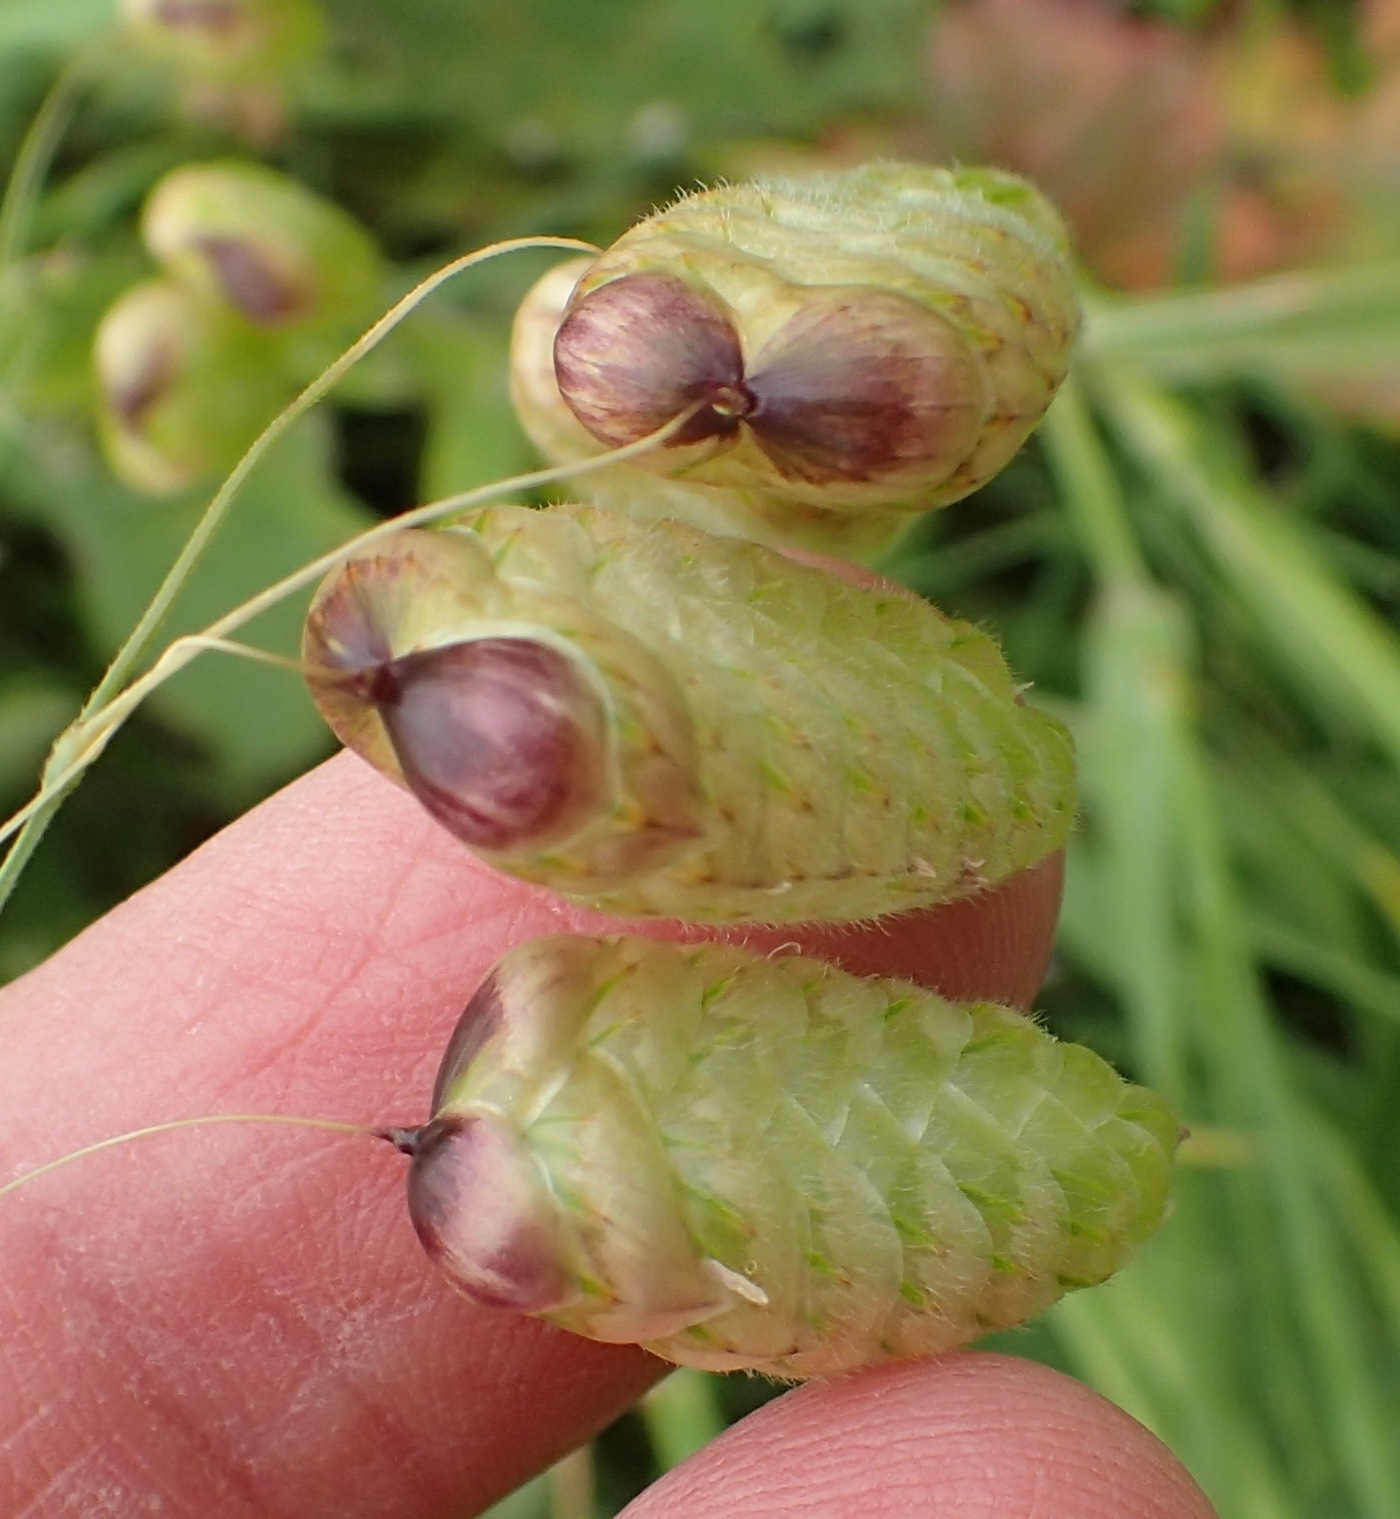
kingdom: Plantae
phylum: Tracheophyta
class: Liliopsida
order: Poales
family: Poaceae
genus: Briza
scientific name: Briza maxima
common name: Big quakinggrass
